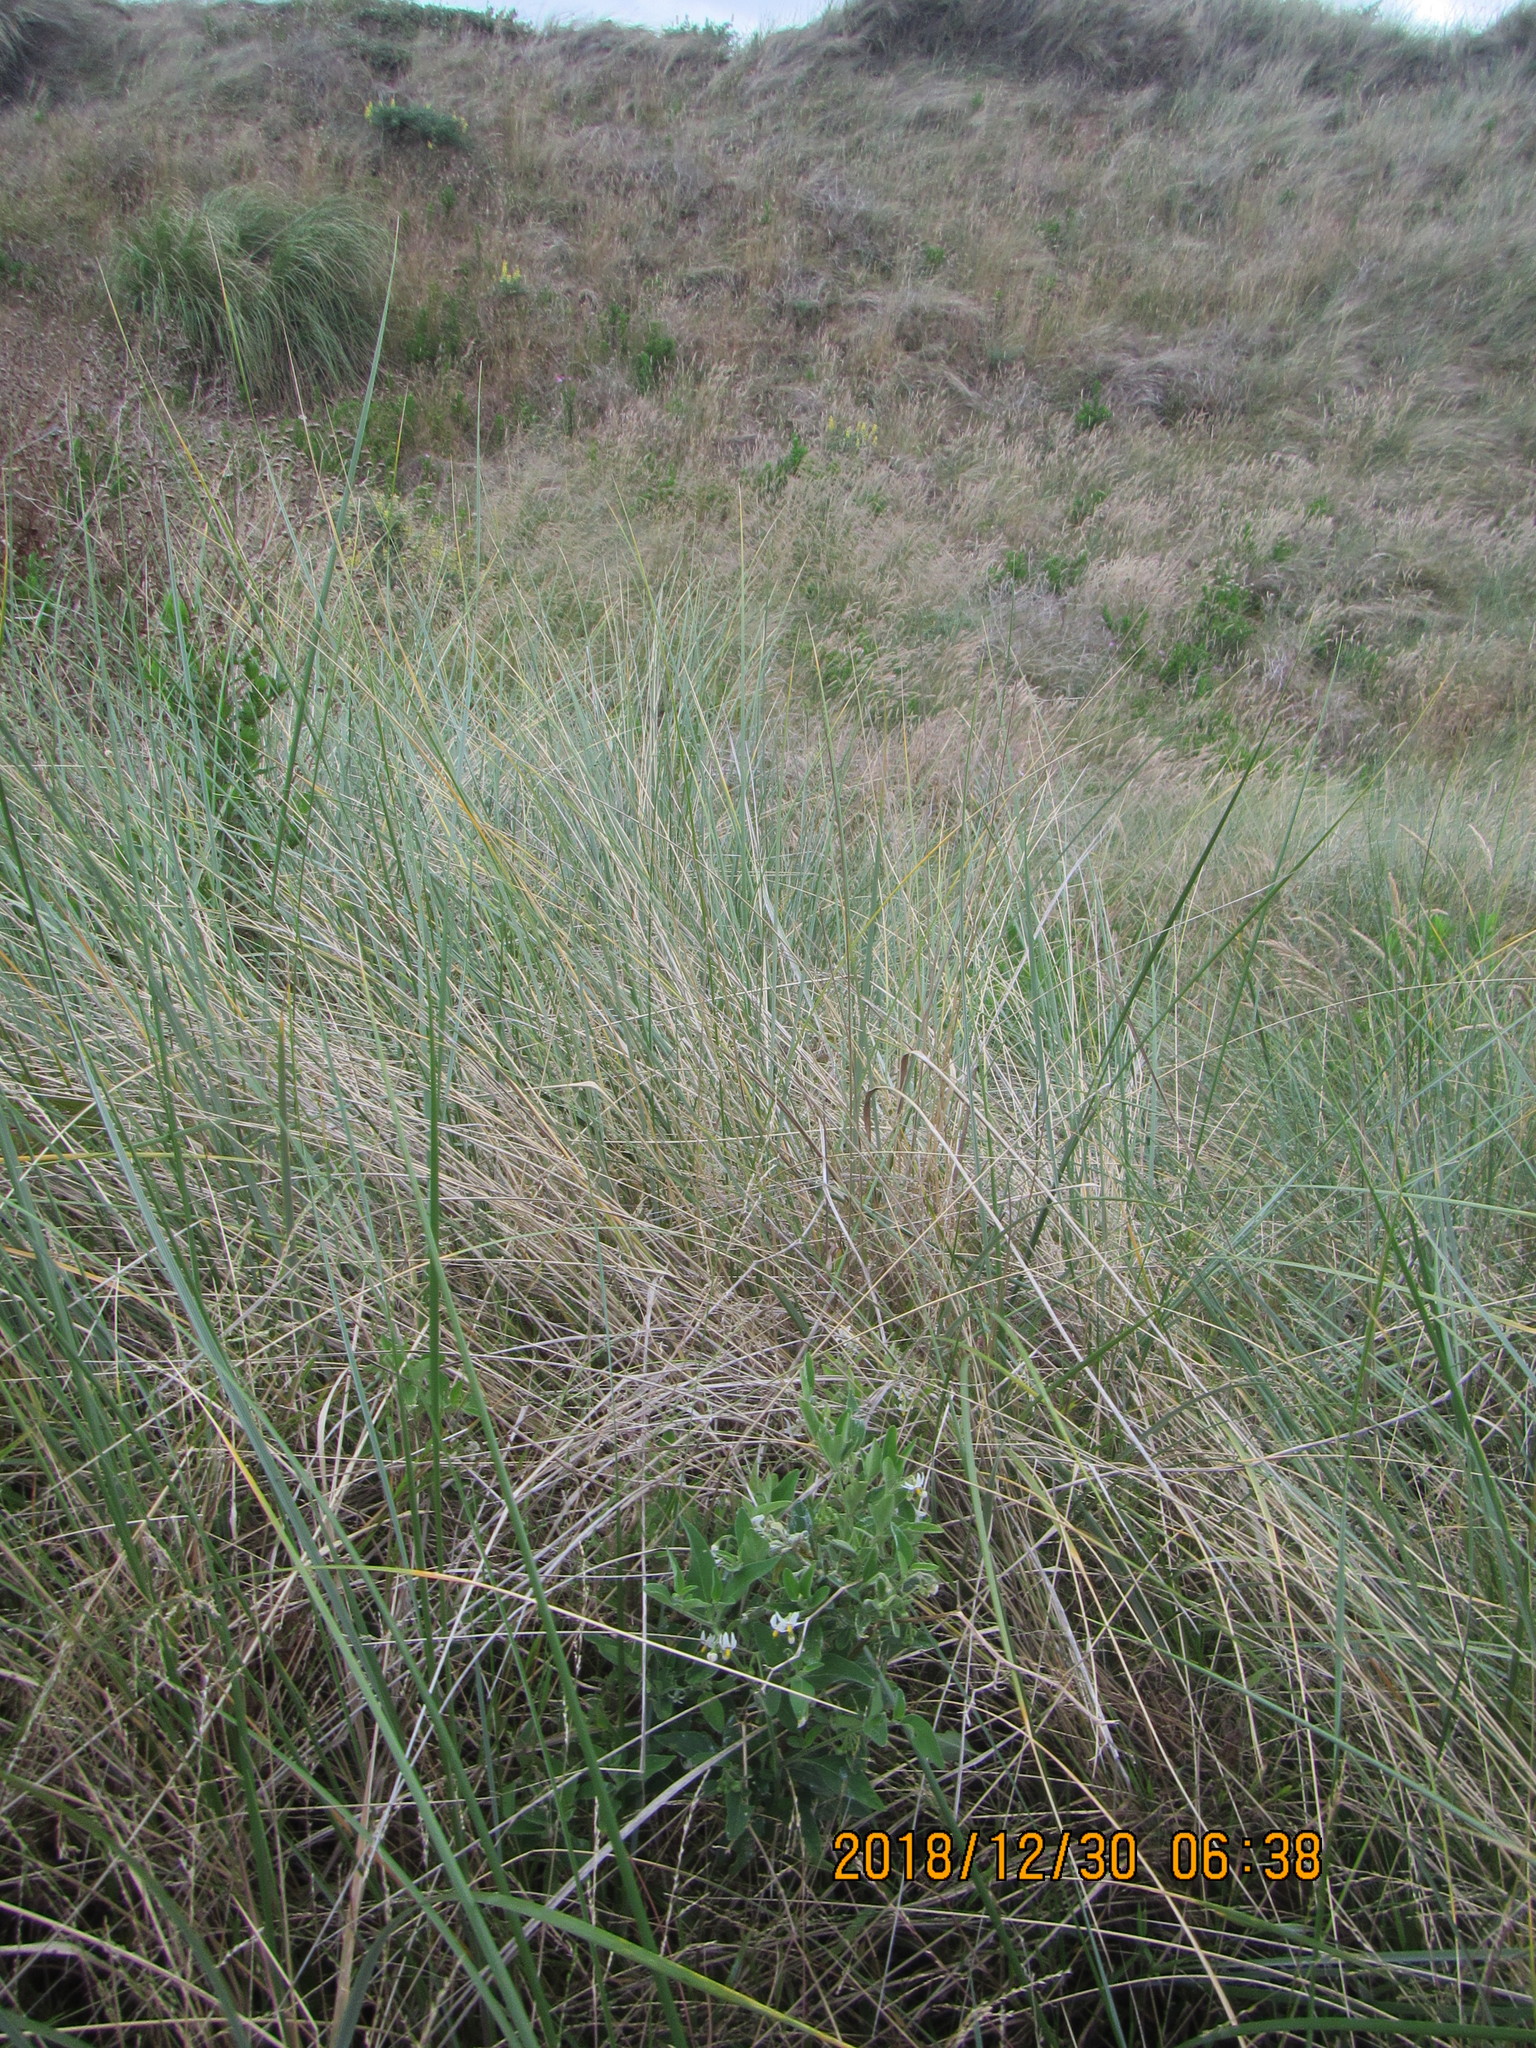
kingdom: Plantae
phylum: Tracheophyta
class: Magnoliopsida
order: Solanales
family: Solanaceae
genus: Solanum
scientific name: Solanum chenopodioides
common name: Tall nightshade
